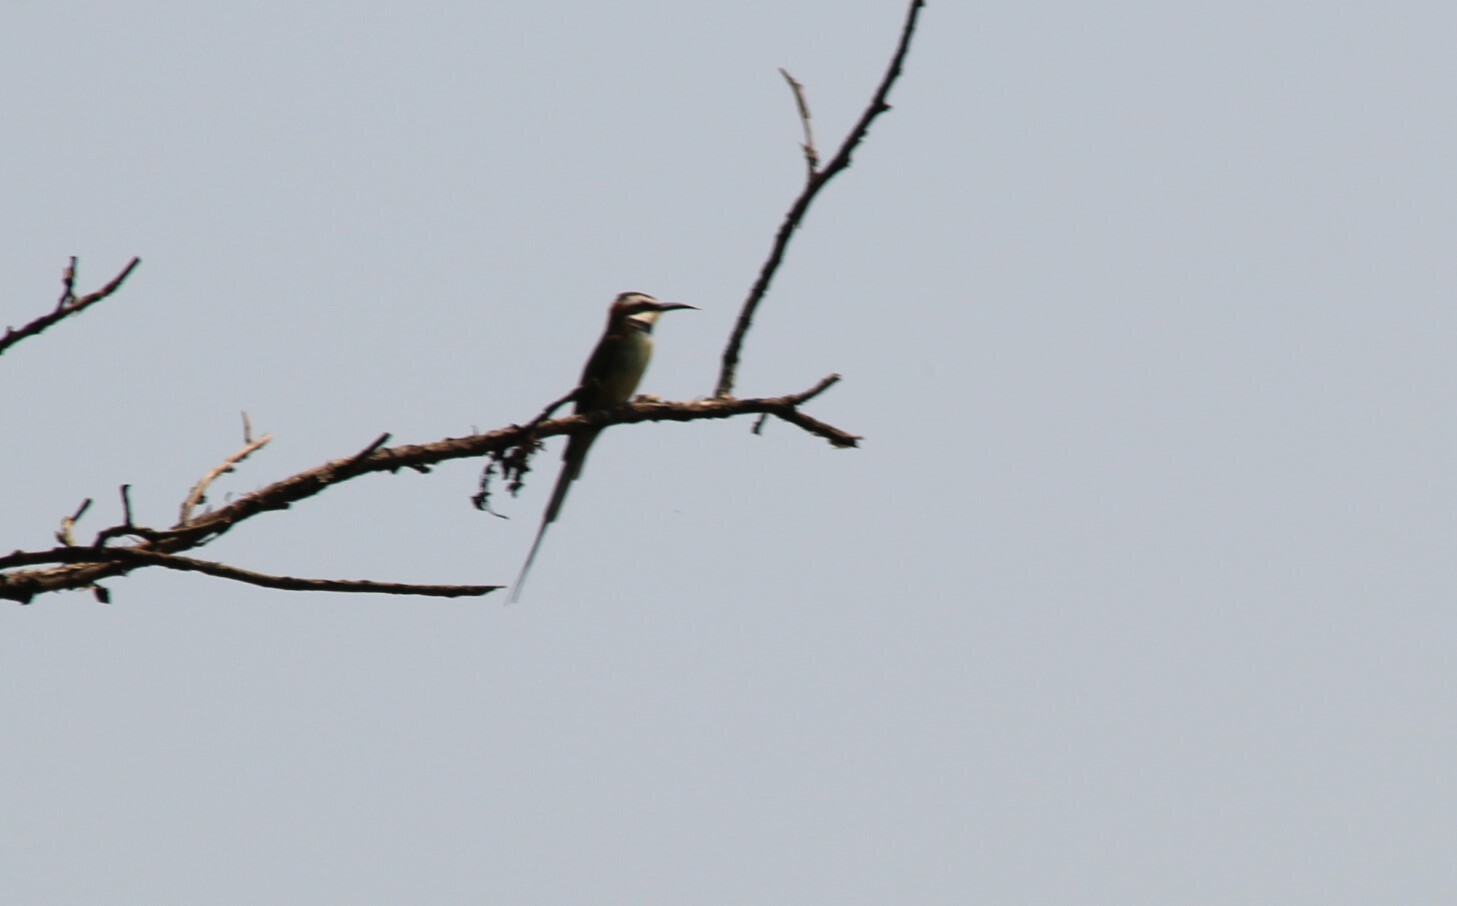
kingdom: Animalia
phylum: Chordata
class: Aves
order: Coraciiformes
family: Meropidae
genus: Merops
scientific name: Merops albicollis
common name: White-throated bee-eater
